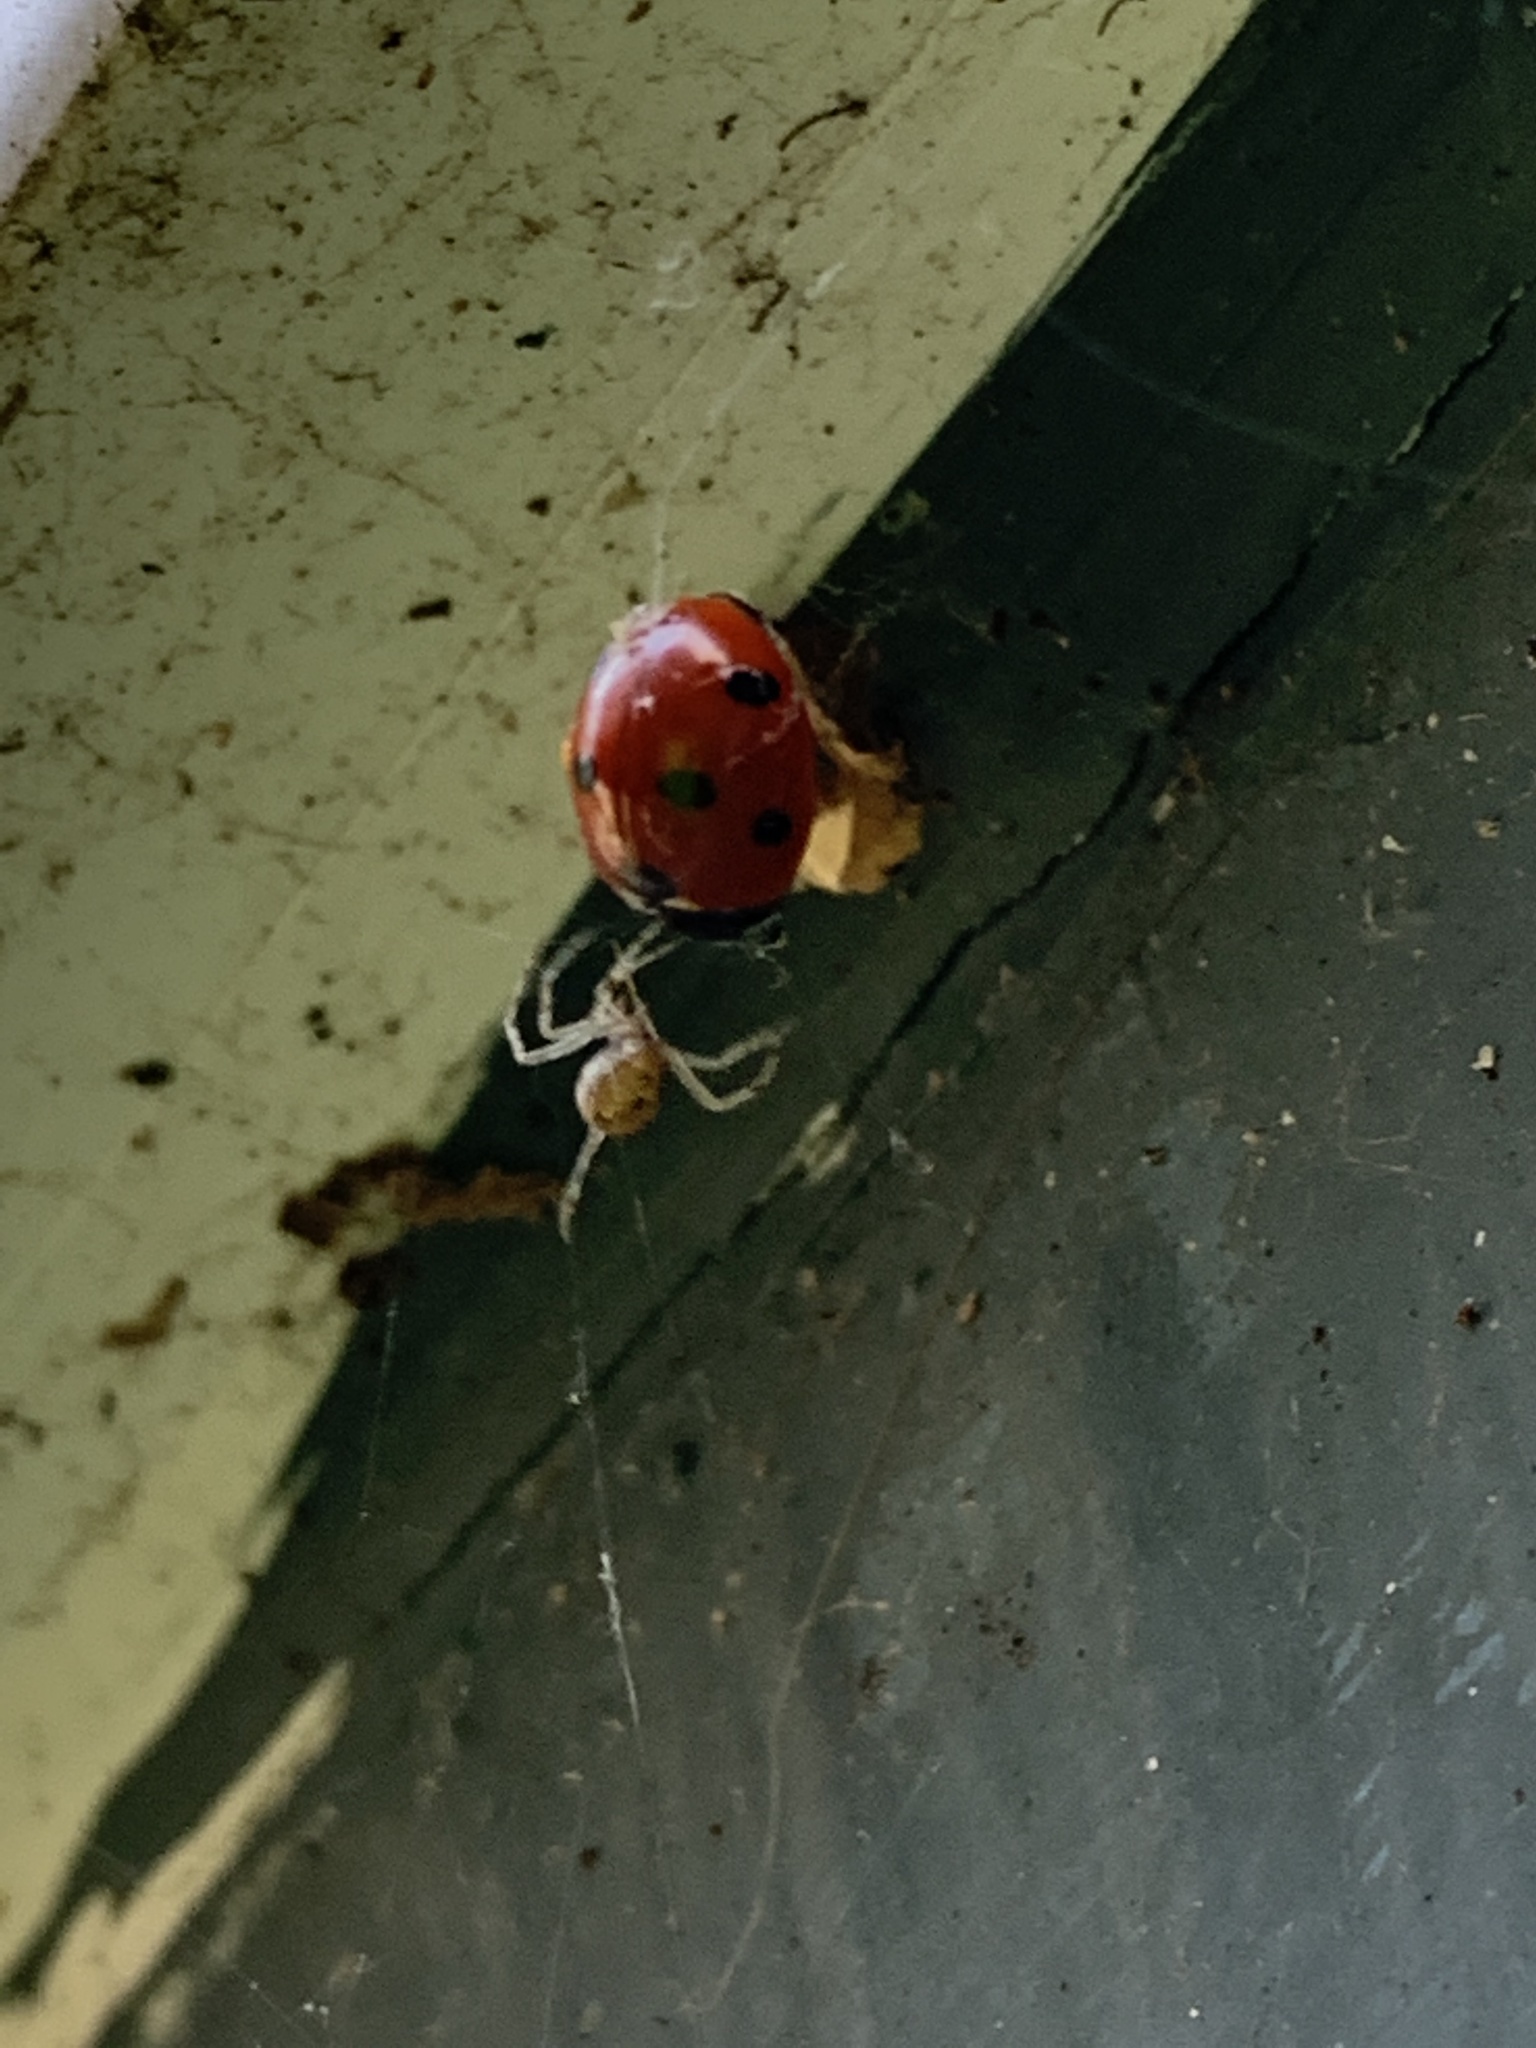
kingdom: Animalia
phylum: Arthropoda
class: Insecta
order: Coleoptera
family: Coccinellidae
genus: Coccinella
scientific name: Coccinella septempunctata
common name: Sevenspotted lady beetle
